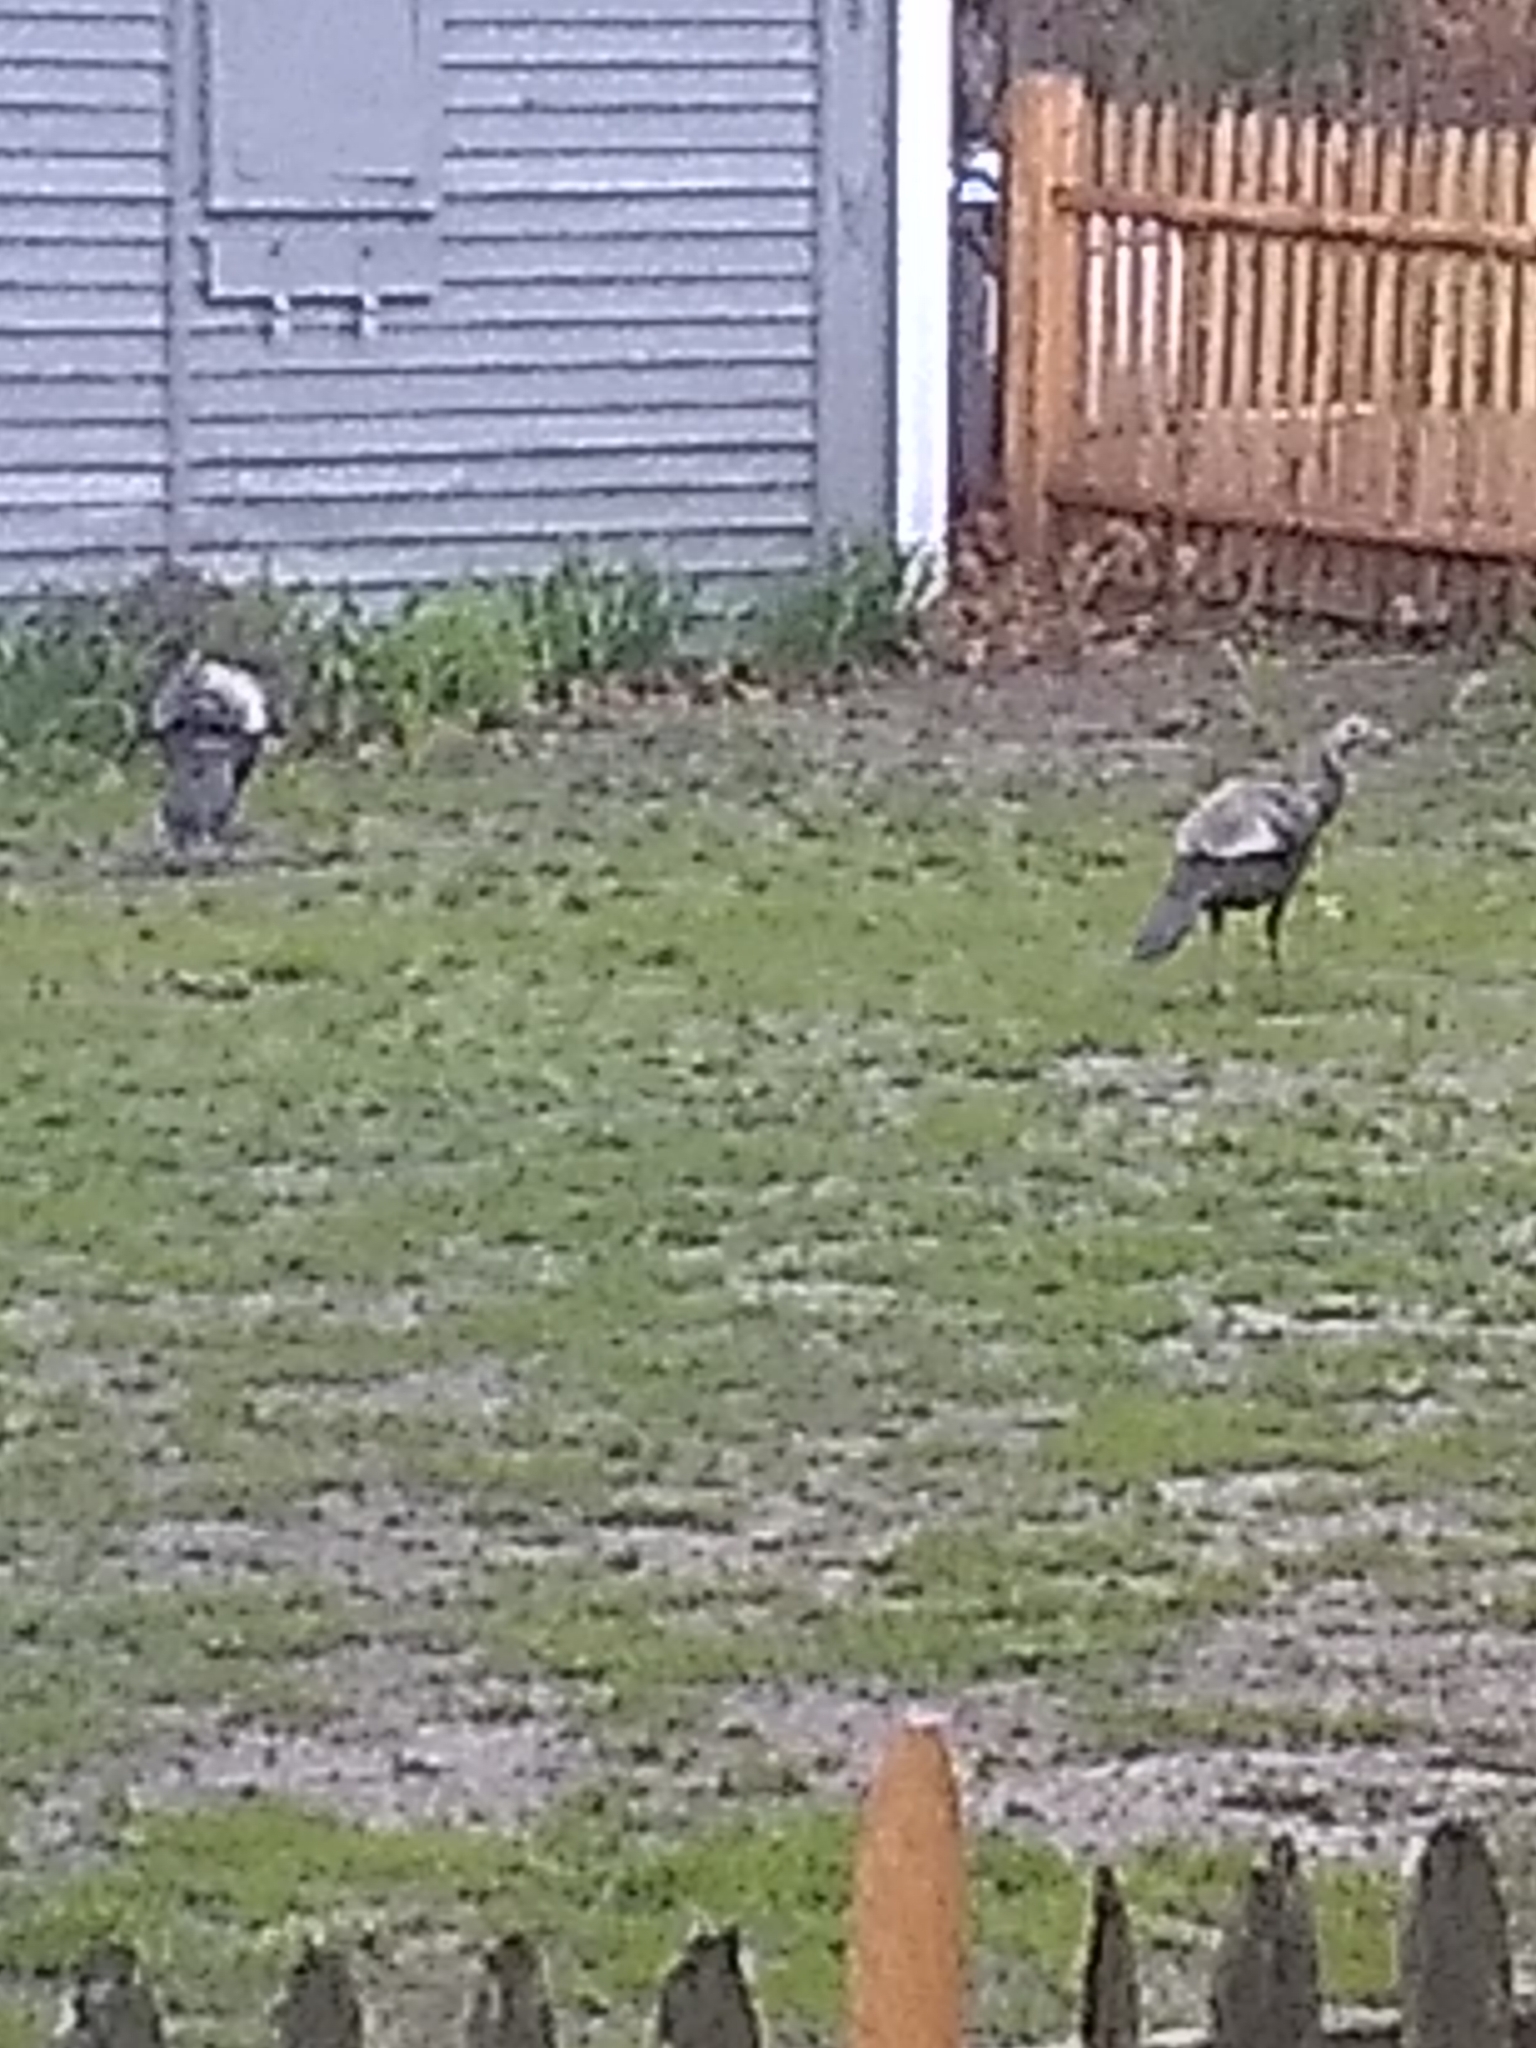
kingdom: Animalia
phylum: Chordata
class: Aves
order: Galliformes
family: Phasianidae
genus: Meleagris
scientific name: Meleagris gallopavo
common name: Wild turkey
